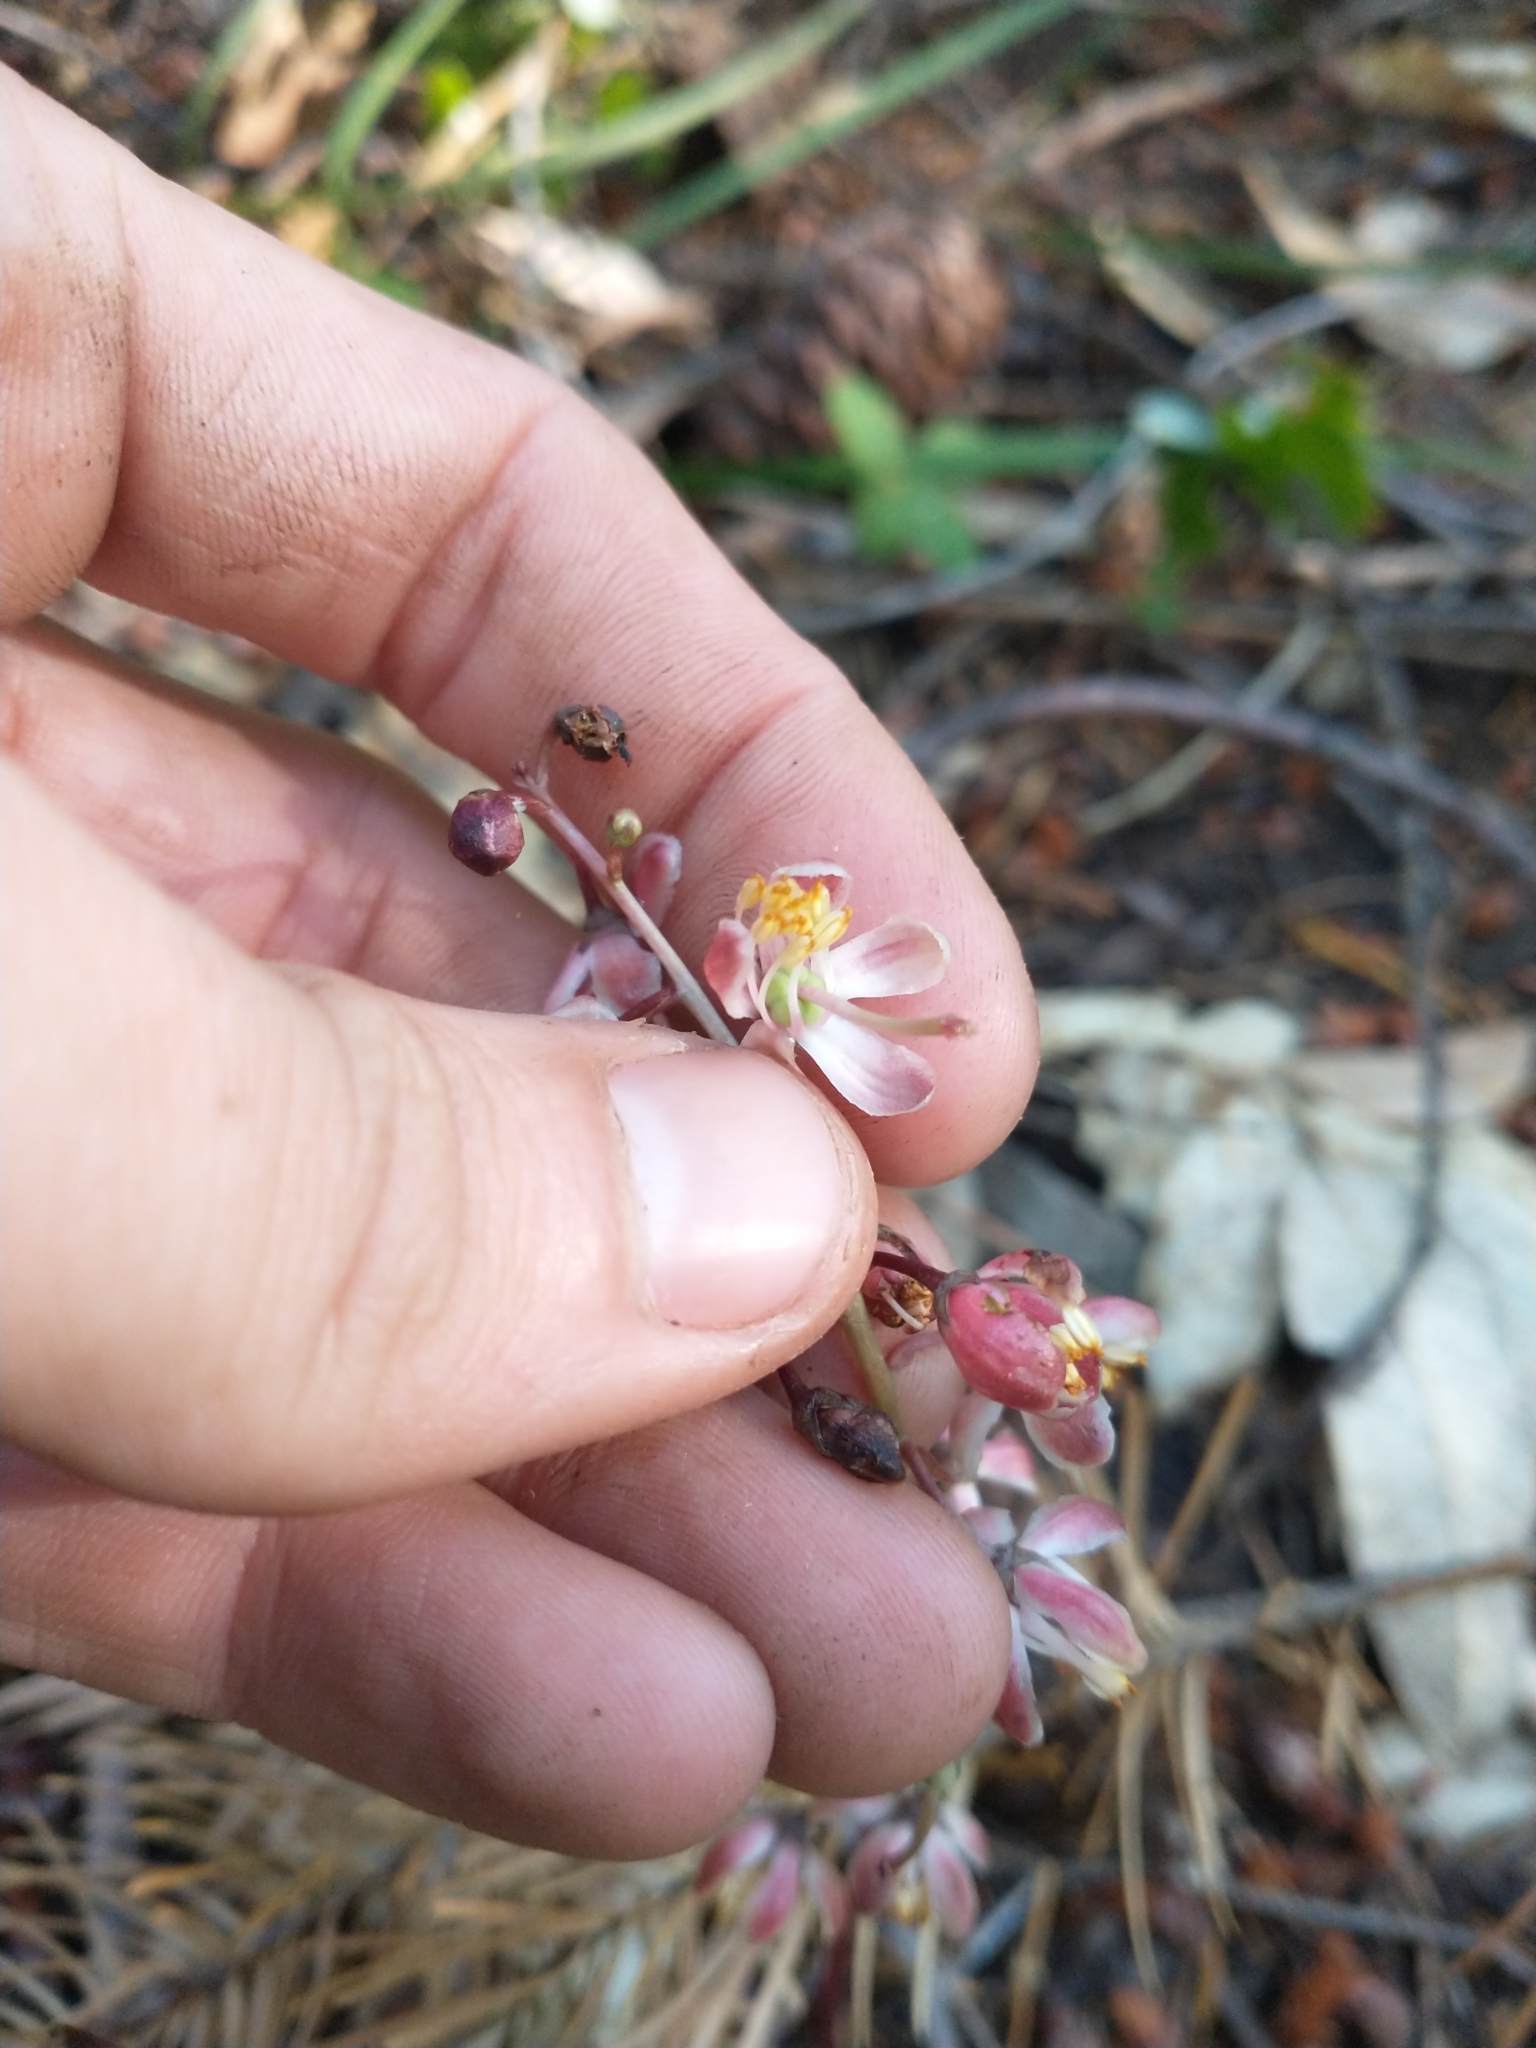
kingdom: Plantae
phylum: Tracheophyta
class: Magnoliopsida
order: Ericales
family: Ericaceae
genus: Pyrola
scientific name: Pyrola aphylla
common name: Leafless wintergreen
